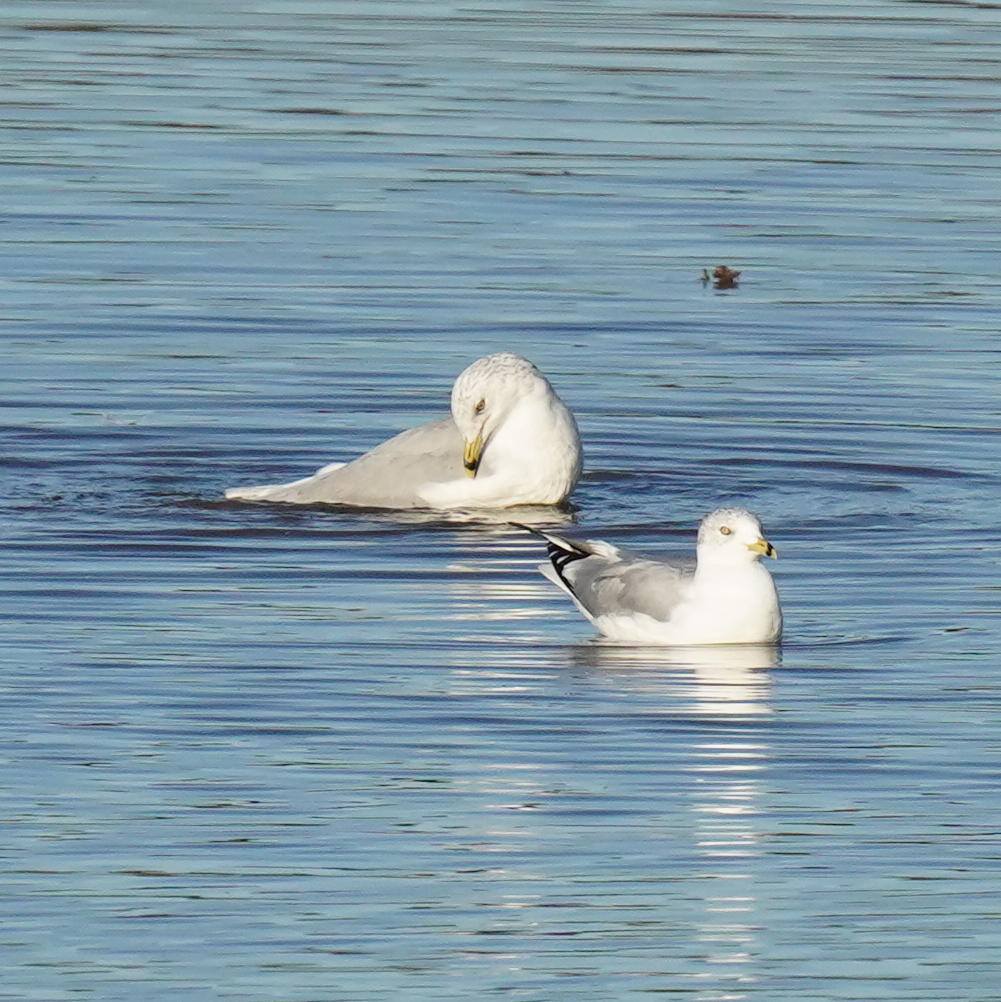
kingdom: Animalia
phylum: Chordata
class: Aves
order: Charadriiformes
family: Laridae
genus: Larus
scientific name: Larus delawarensis
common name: Ring-billed gull
